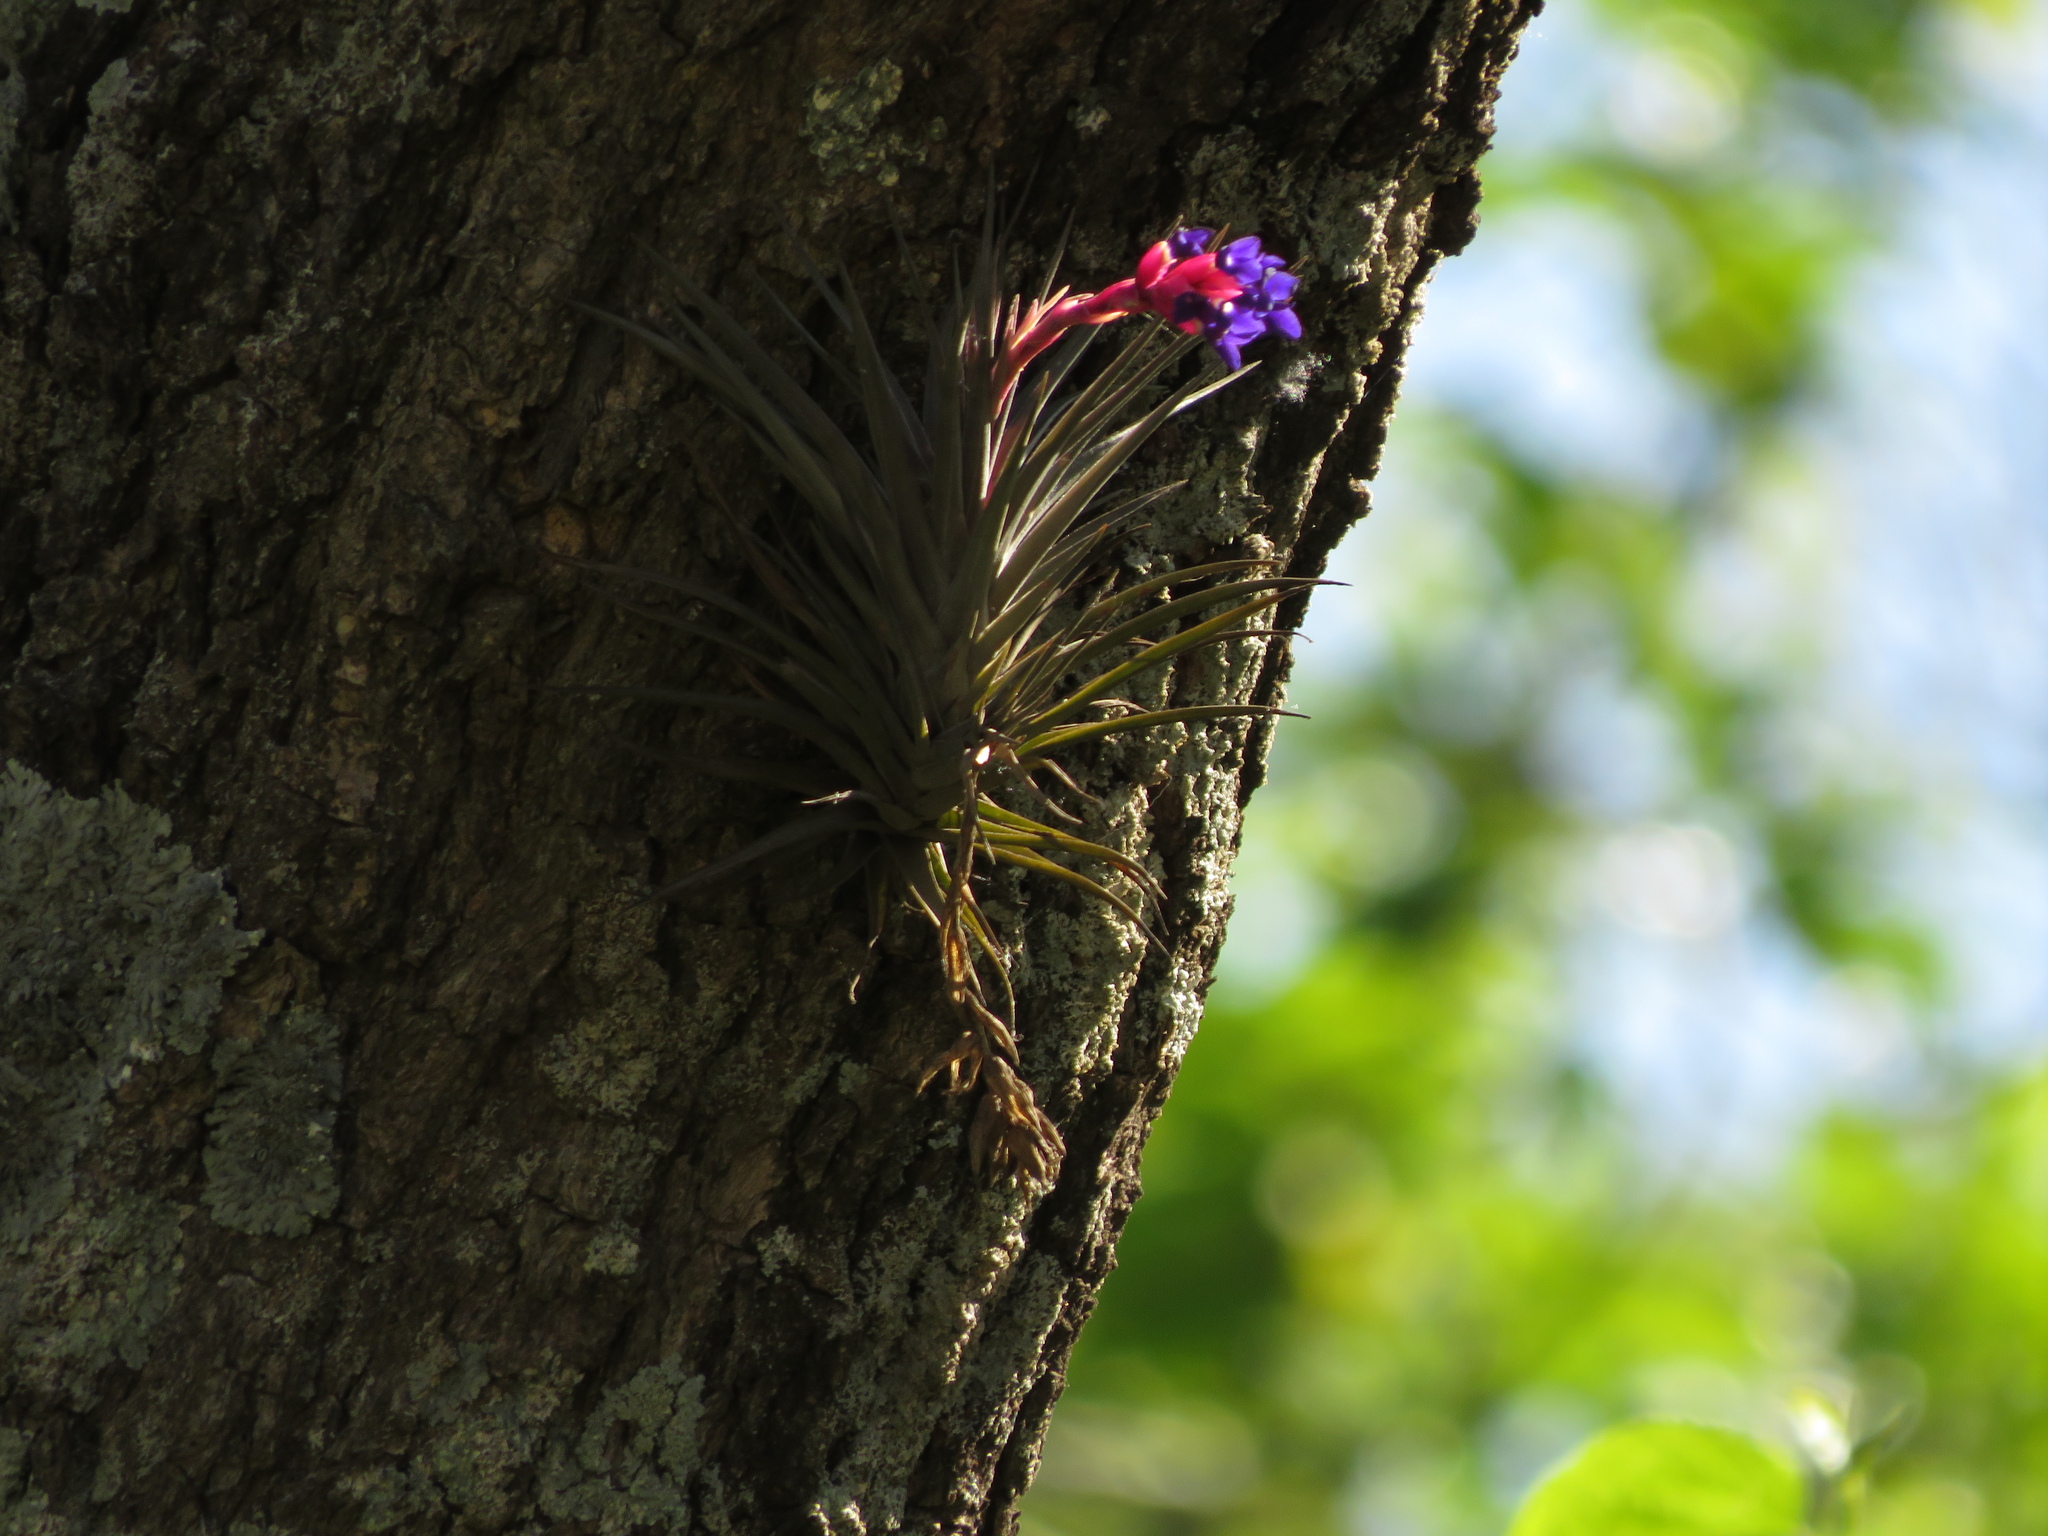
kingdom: Plantae
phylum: Tracheophyta
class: Liliopsida
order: Poales
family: Bromeliaceae
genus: Tillandsia
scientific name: Tillandsia aeranthos
